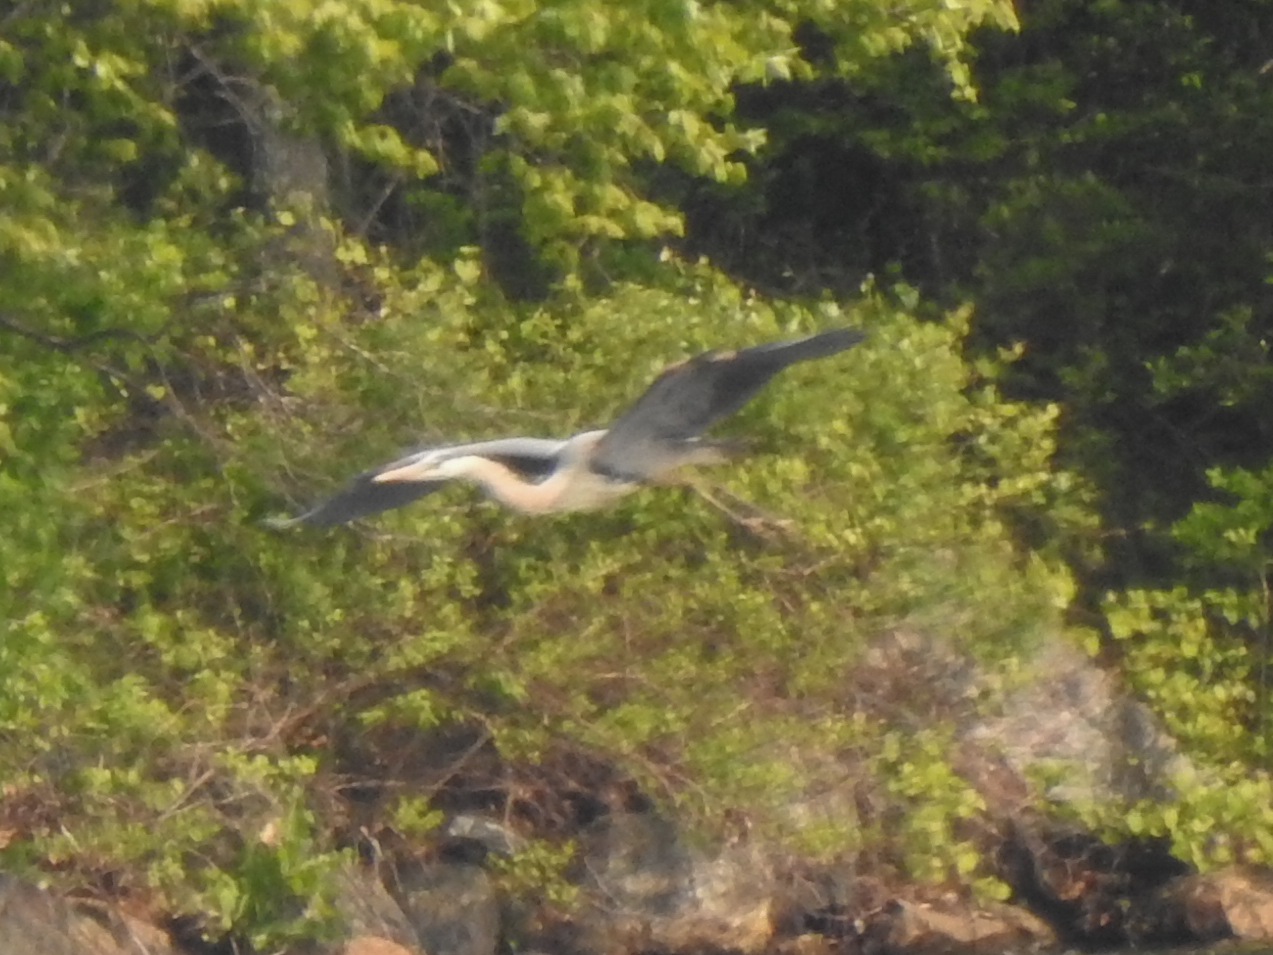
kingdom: Animalia
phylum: Chordata
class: Aves
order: Pelecaniformes
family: Ardeidae
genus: Ardea
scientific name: Ardea herodias
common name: Great blue heron
